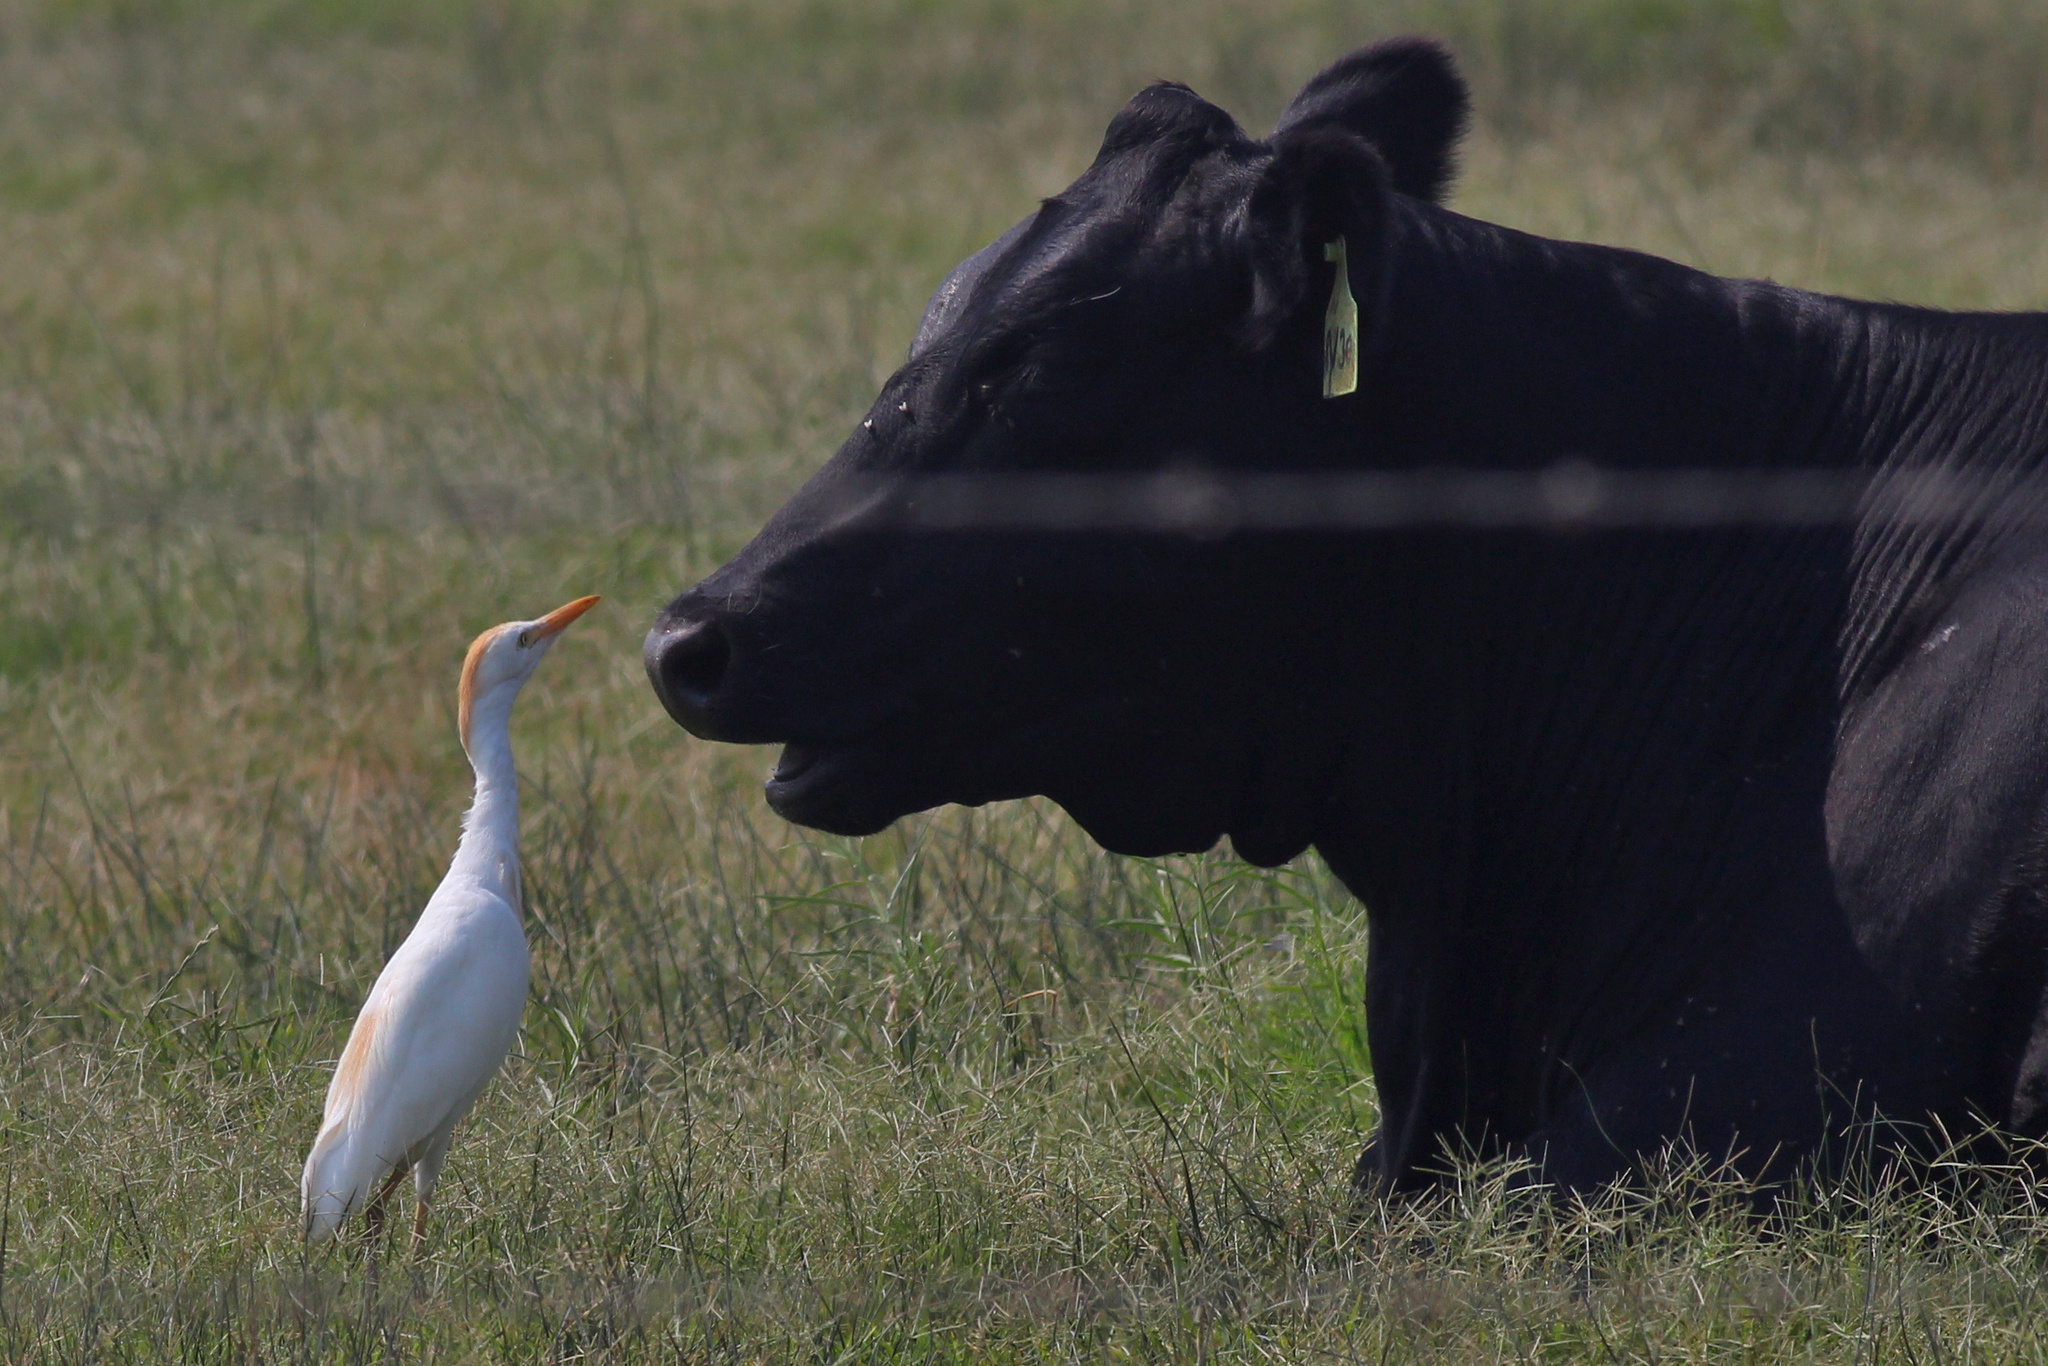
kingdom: Animalia
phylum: Chordata
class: Aves
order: Pelecaniformes
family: Ardeidae
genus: Bubulcus
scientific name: Bubulcus ibis
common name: Cattle egret
